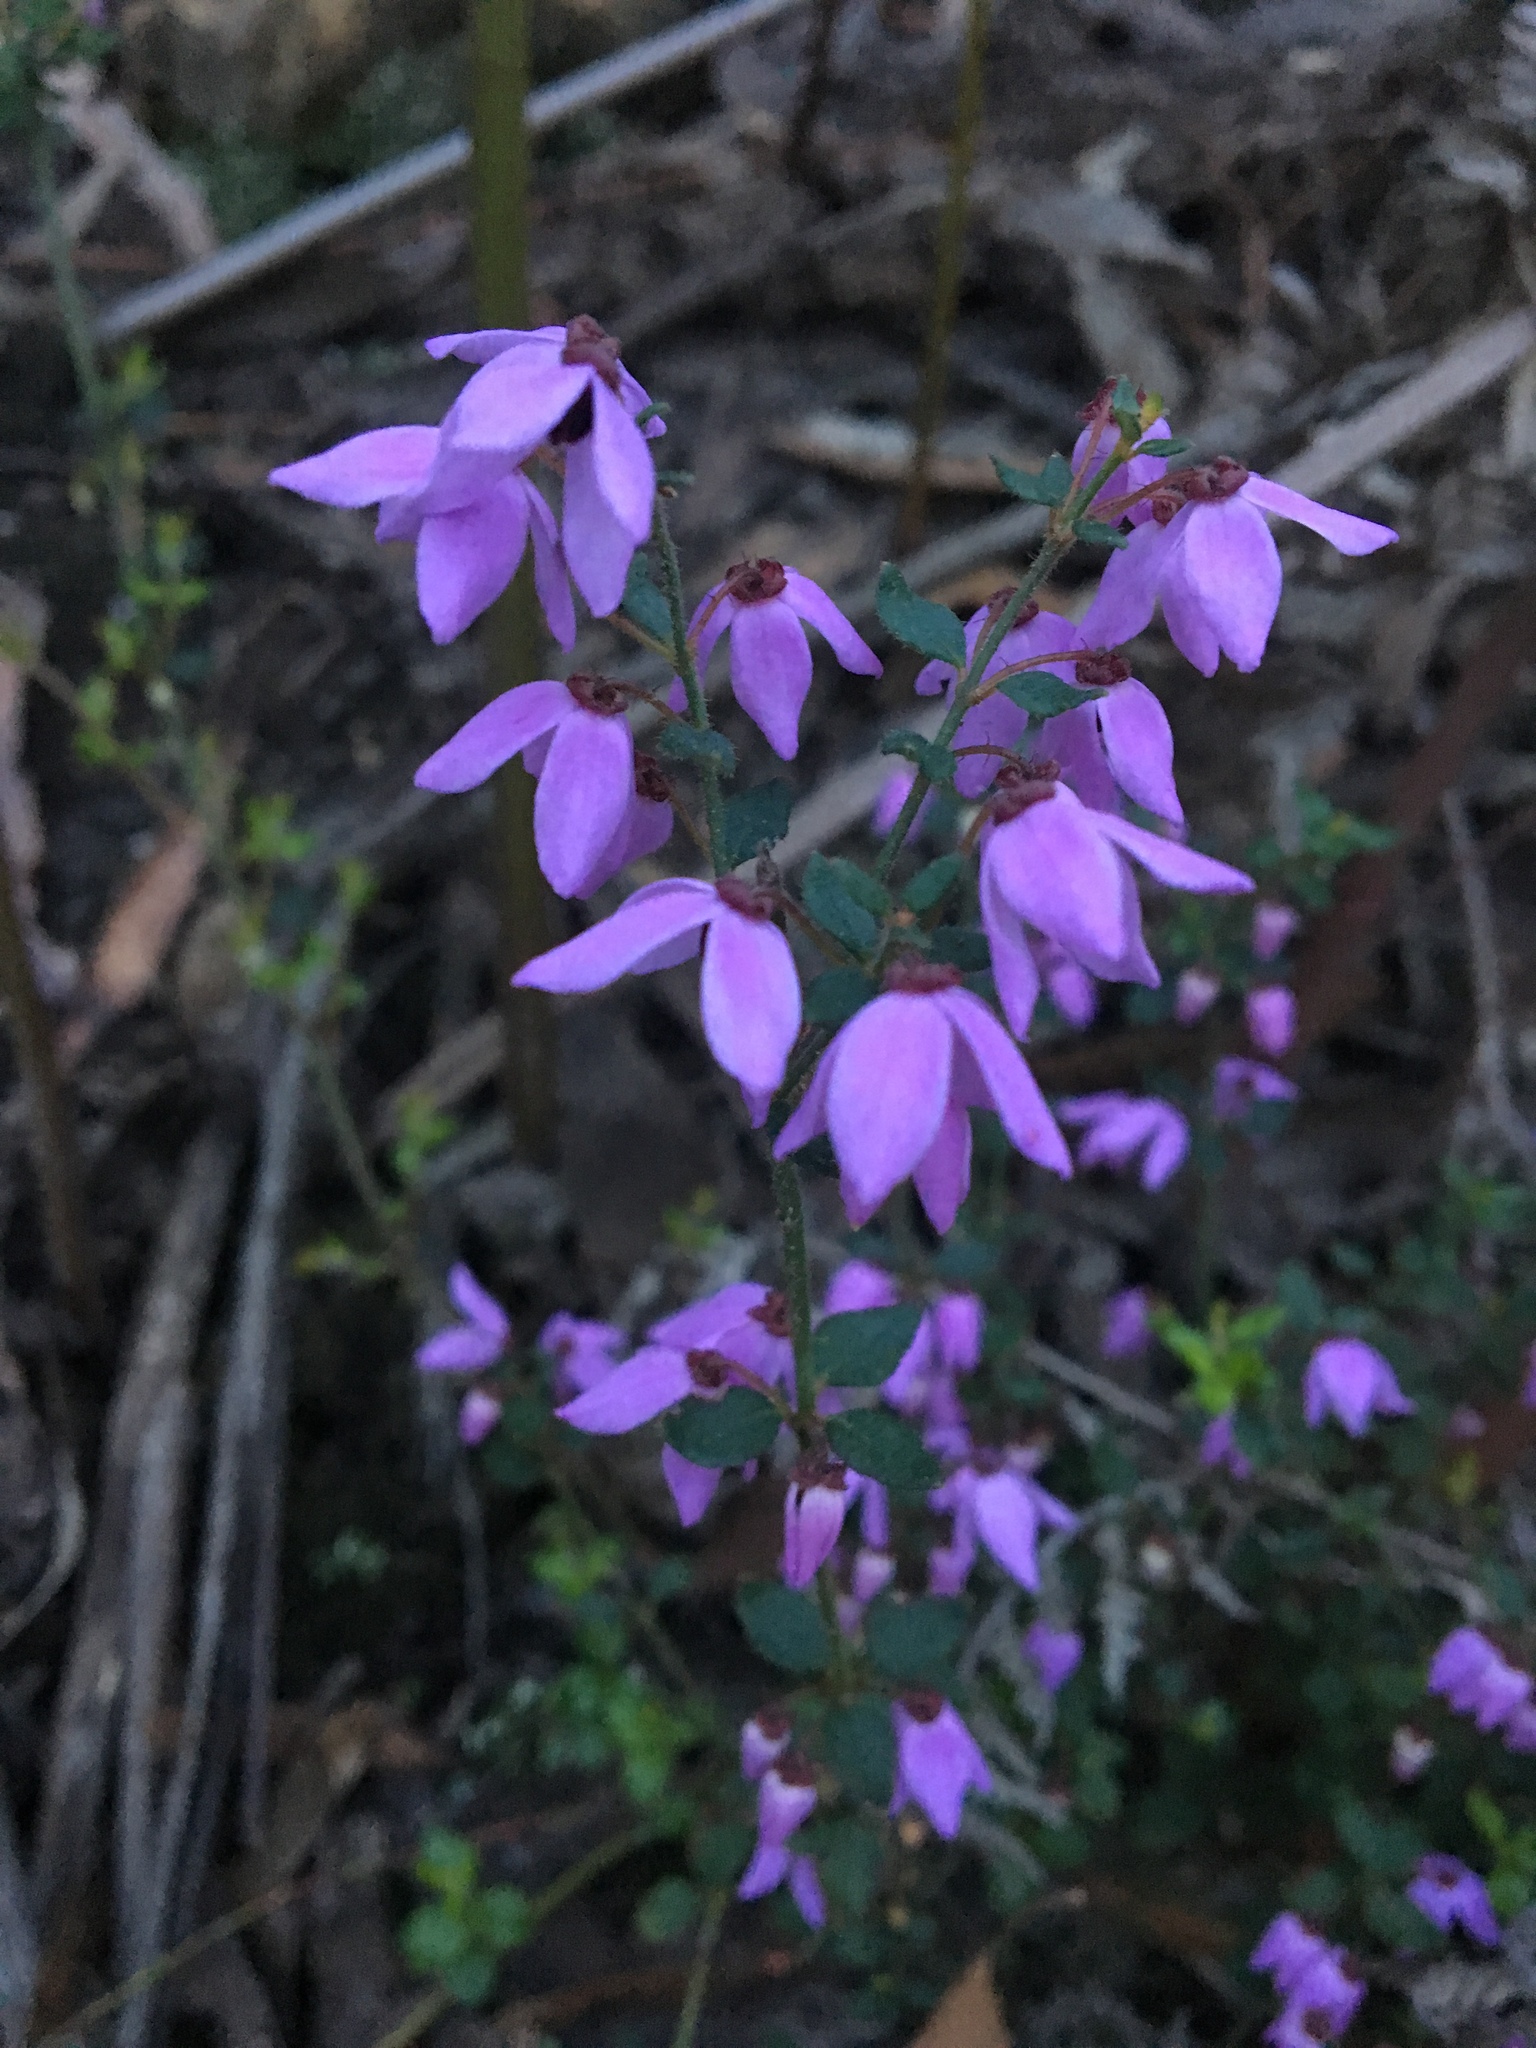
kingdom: Plantae
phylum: Tracheophyta
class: Magnoliopsida
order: Oxalidales
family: Elaeocarpaceae
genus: Tetratheca
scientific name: Tetratheca ciliata
